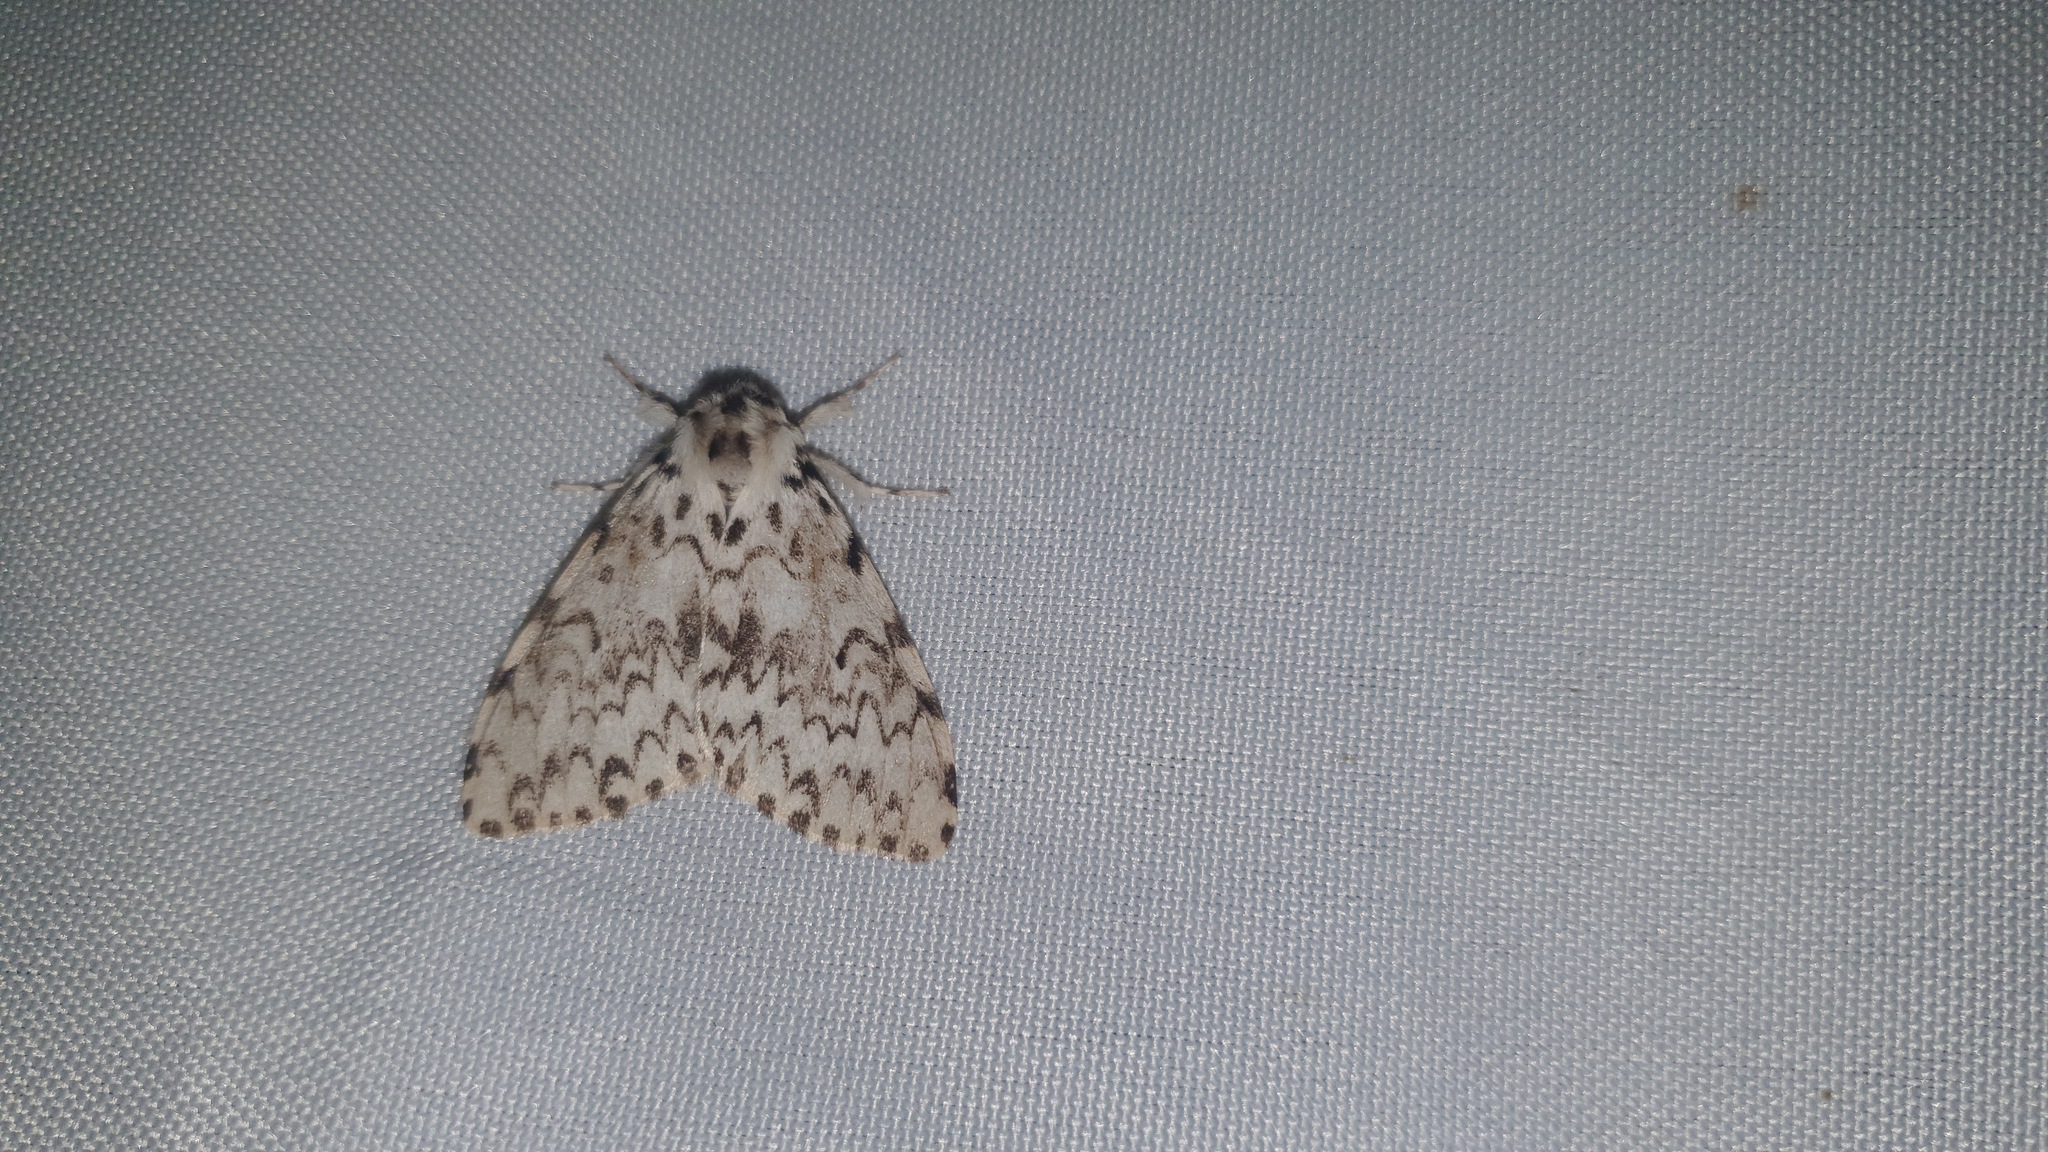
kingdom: Animalia
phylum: Arthropoda
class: Insecta
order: Lepidoptera
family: Erebidae
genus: Lymantria
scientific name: Lymantria monacha
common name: Black arches
